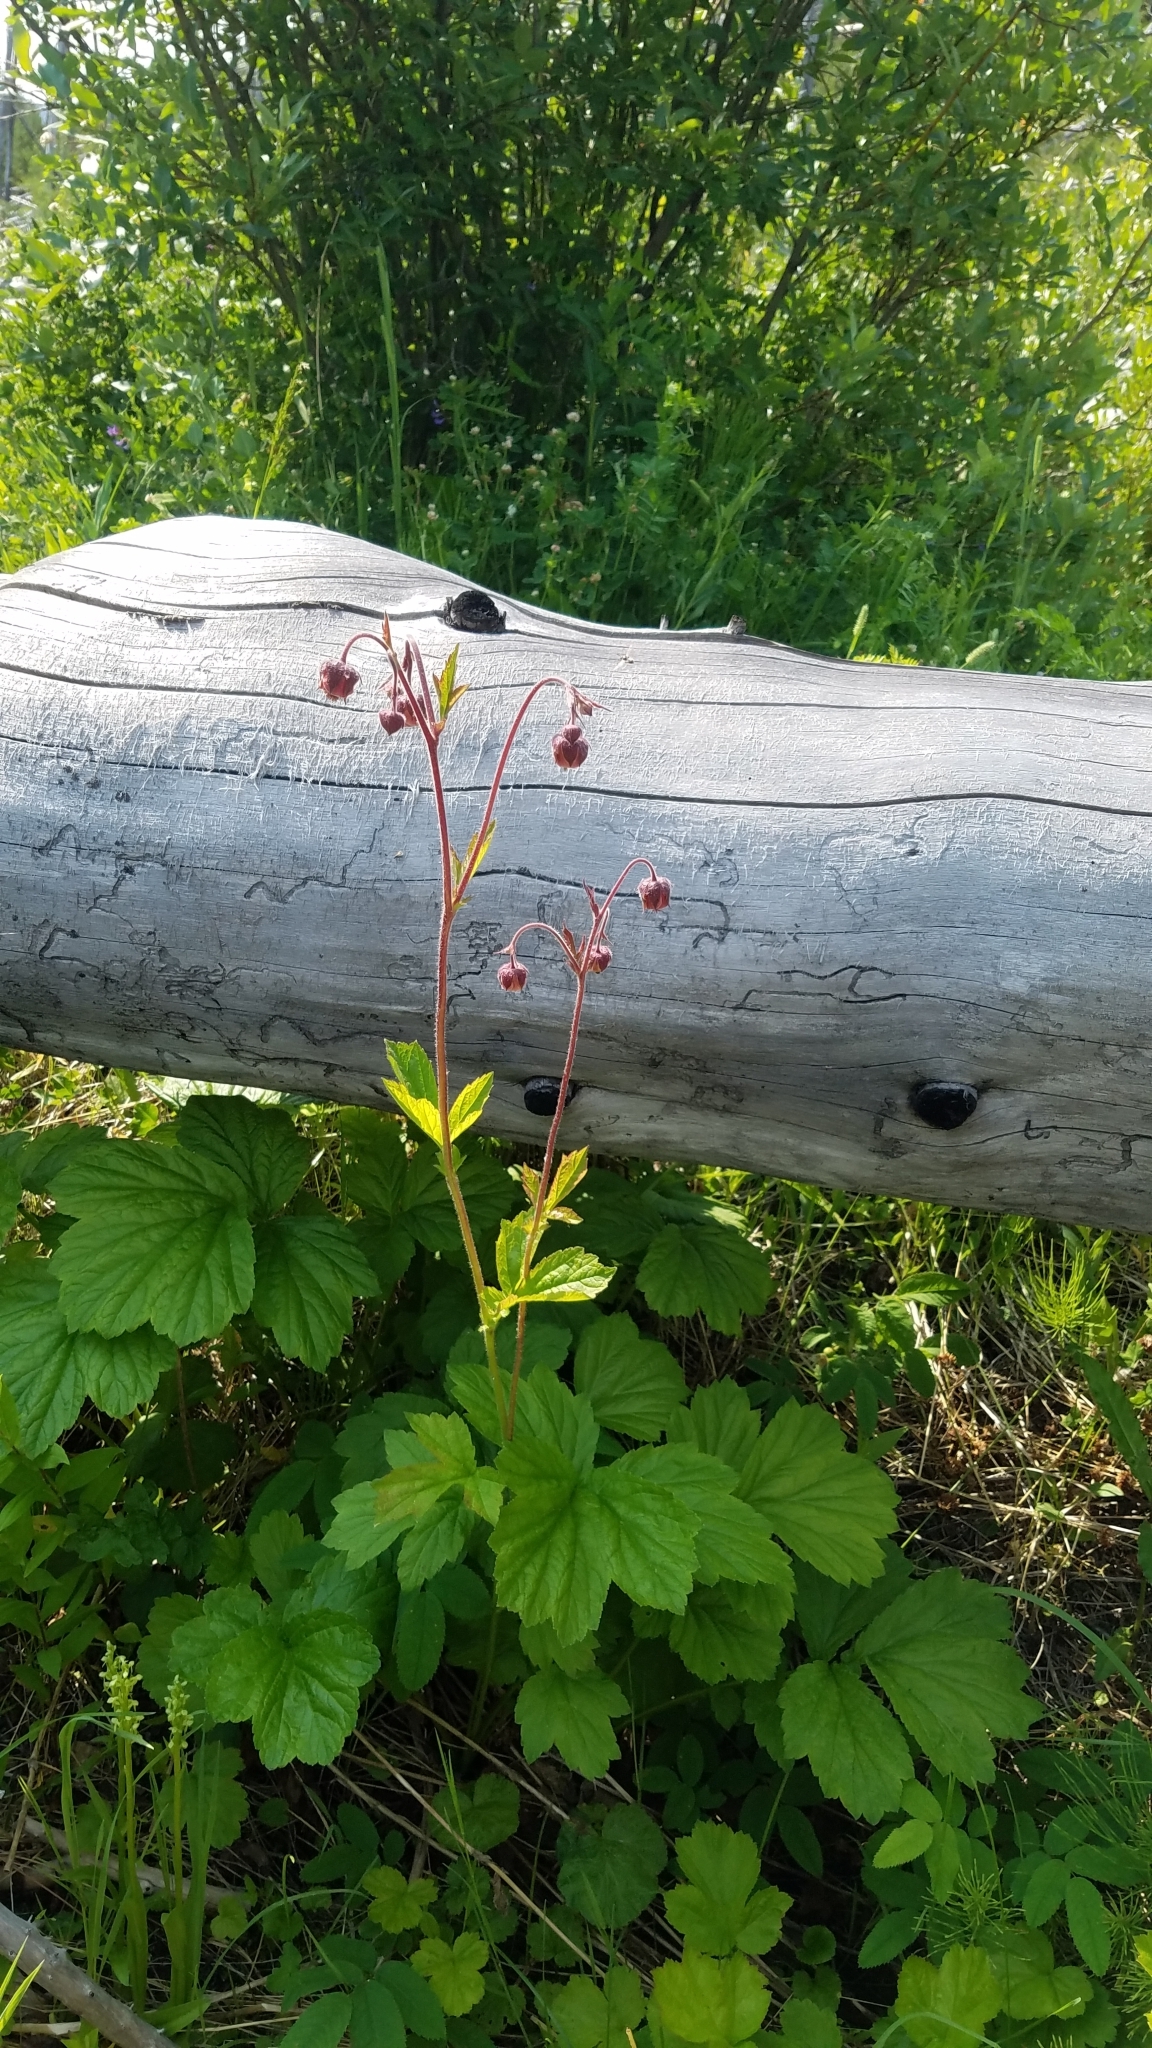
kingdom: Plantae
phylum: Tracheophyta
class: Magnoliopsida
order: Rosales
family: Rosaceae
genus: Geum
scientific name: Geum rivale
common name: Water avens
